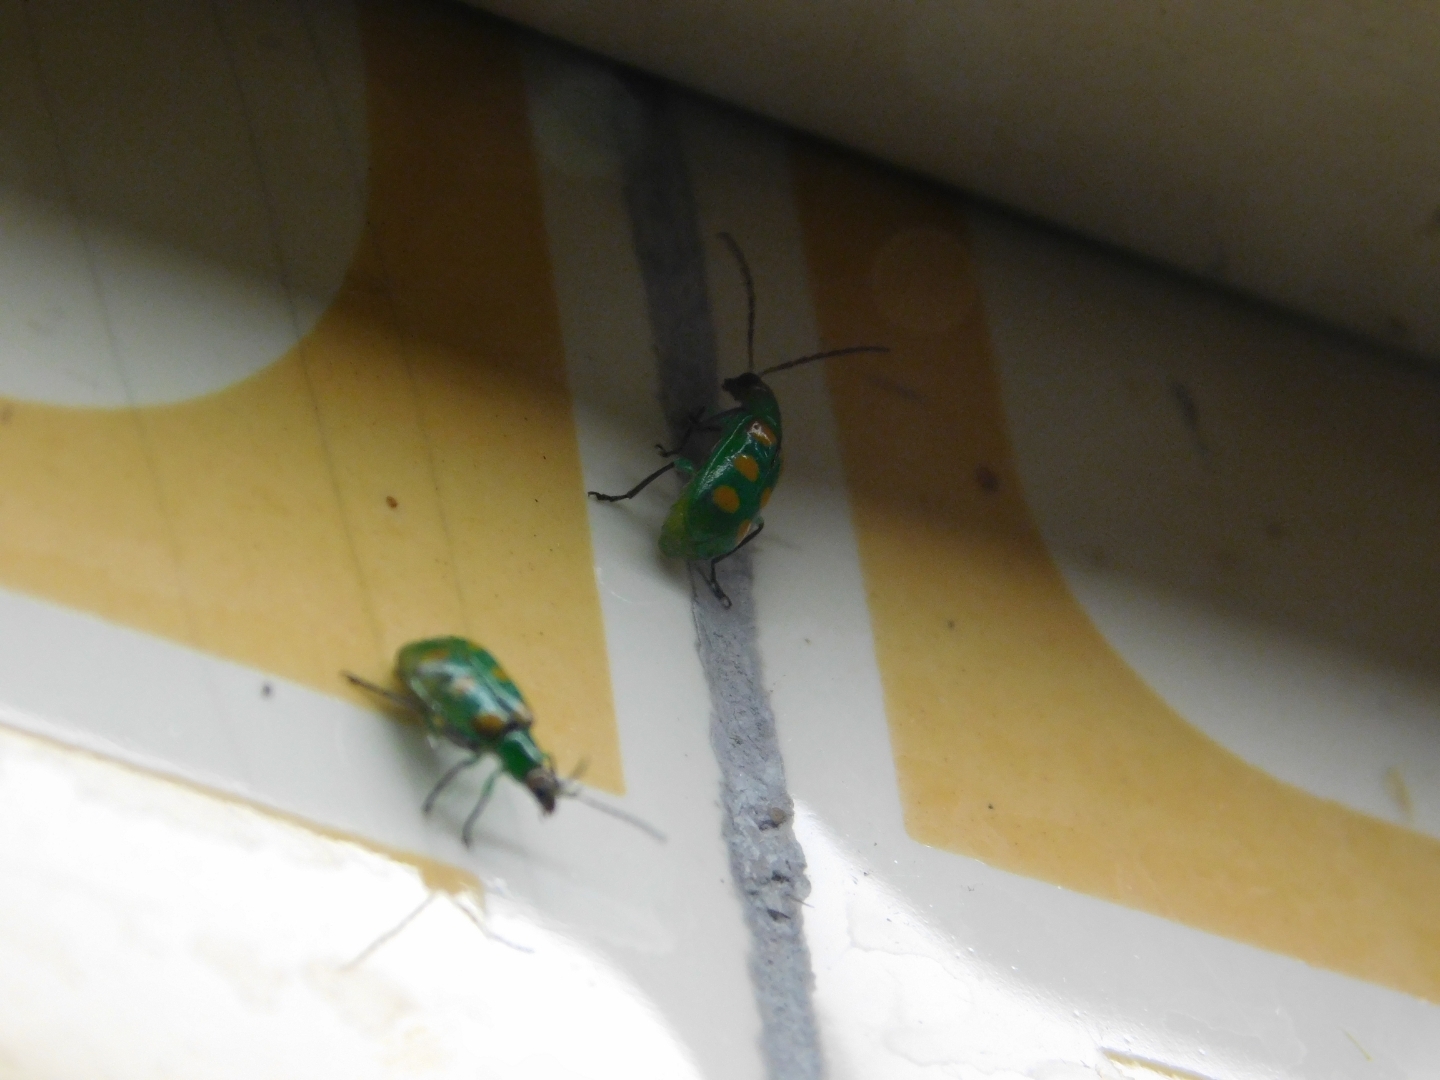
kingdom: Animalia
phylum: Arthropoda
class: Insecta
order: Coleoptera
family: Chrysomelidae
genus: Diabrotica
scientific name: Diabrotica speciosa
